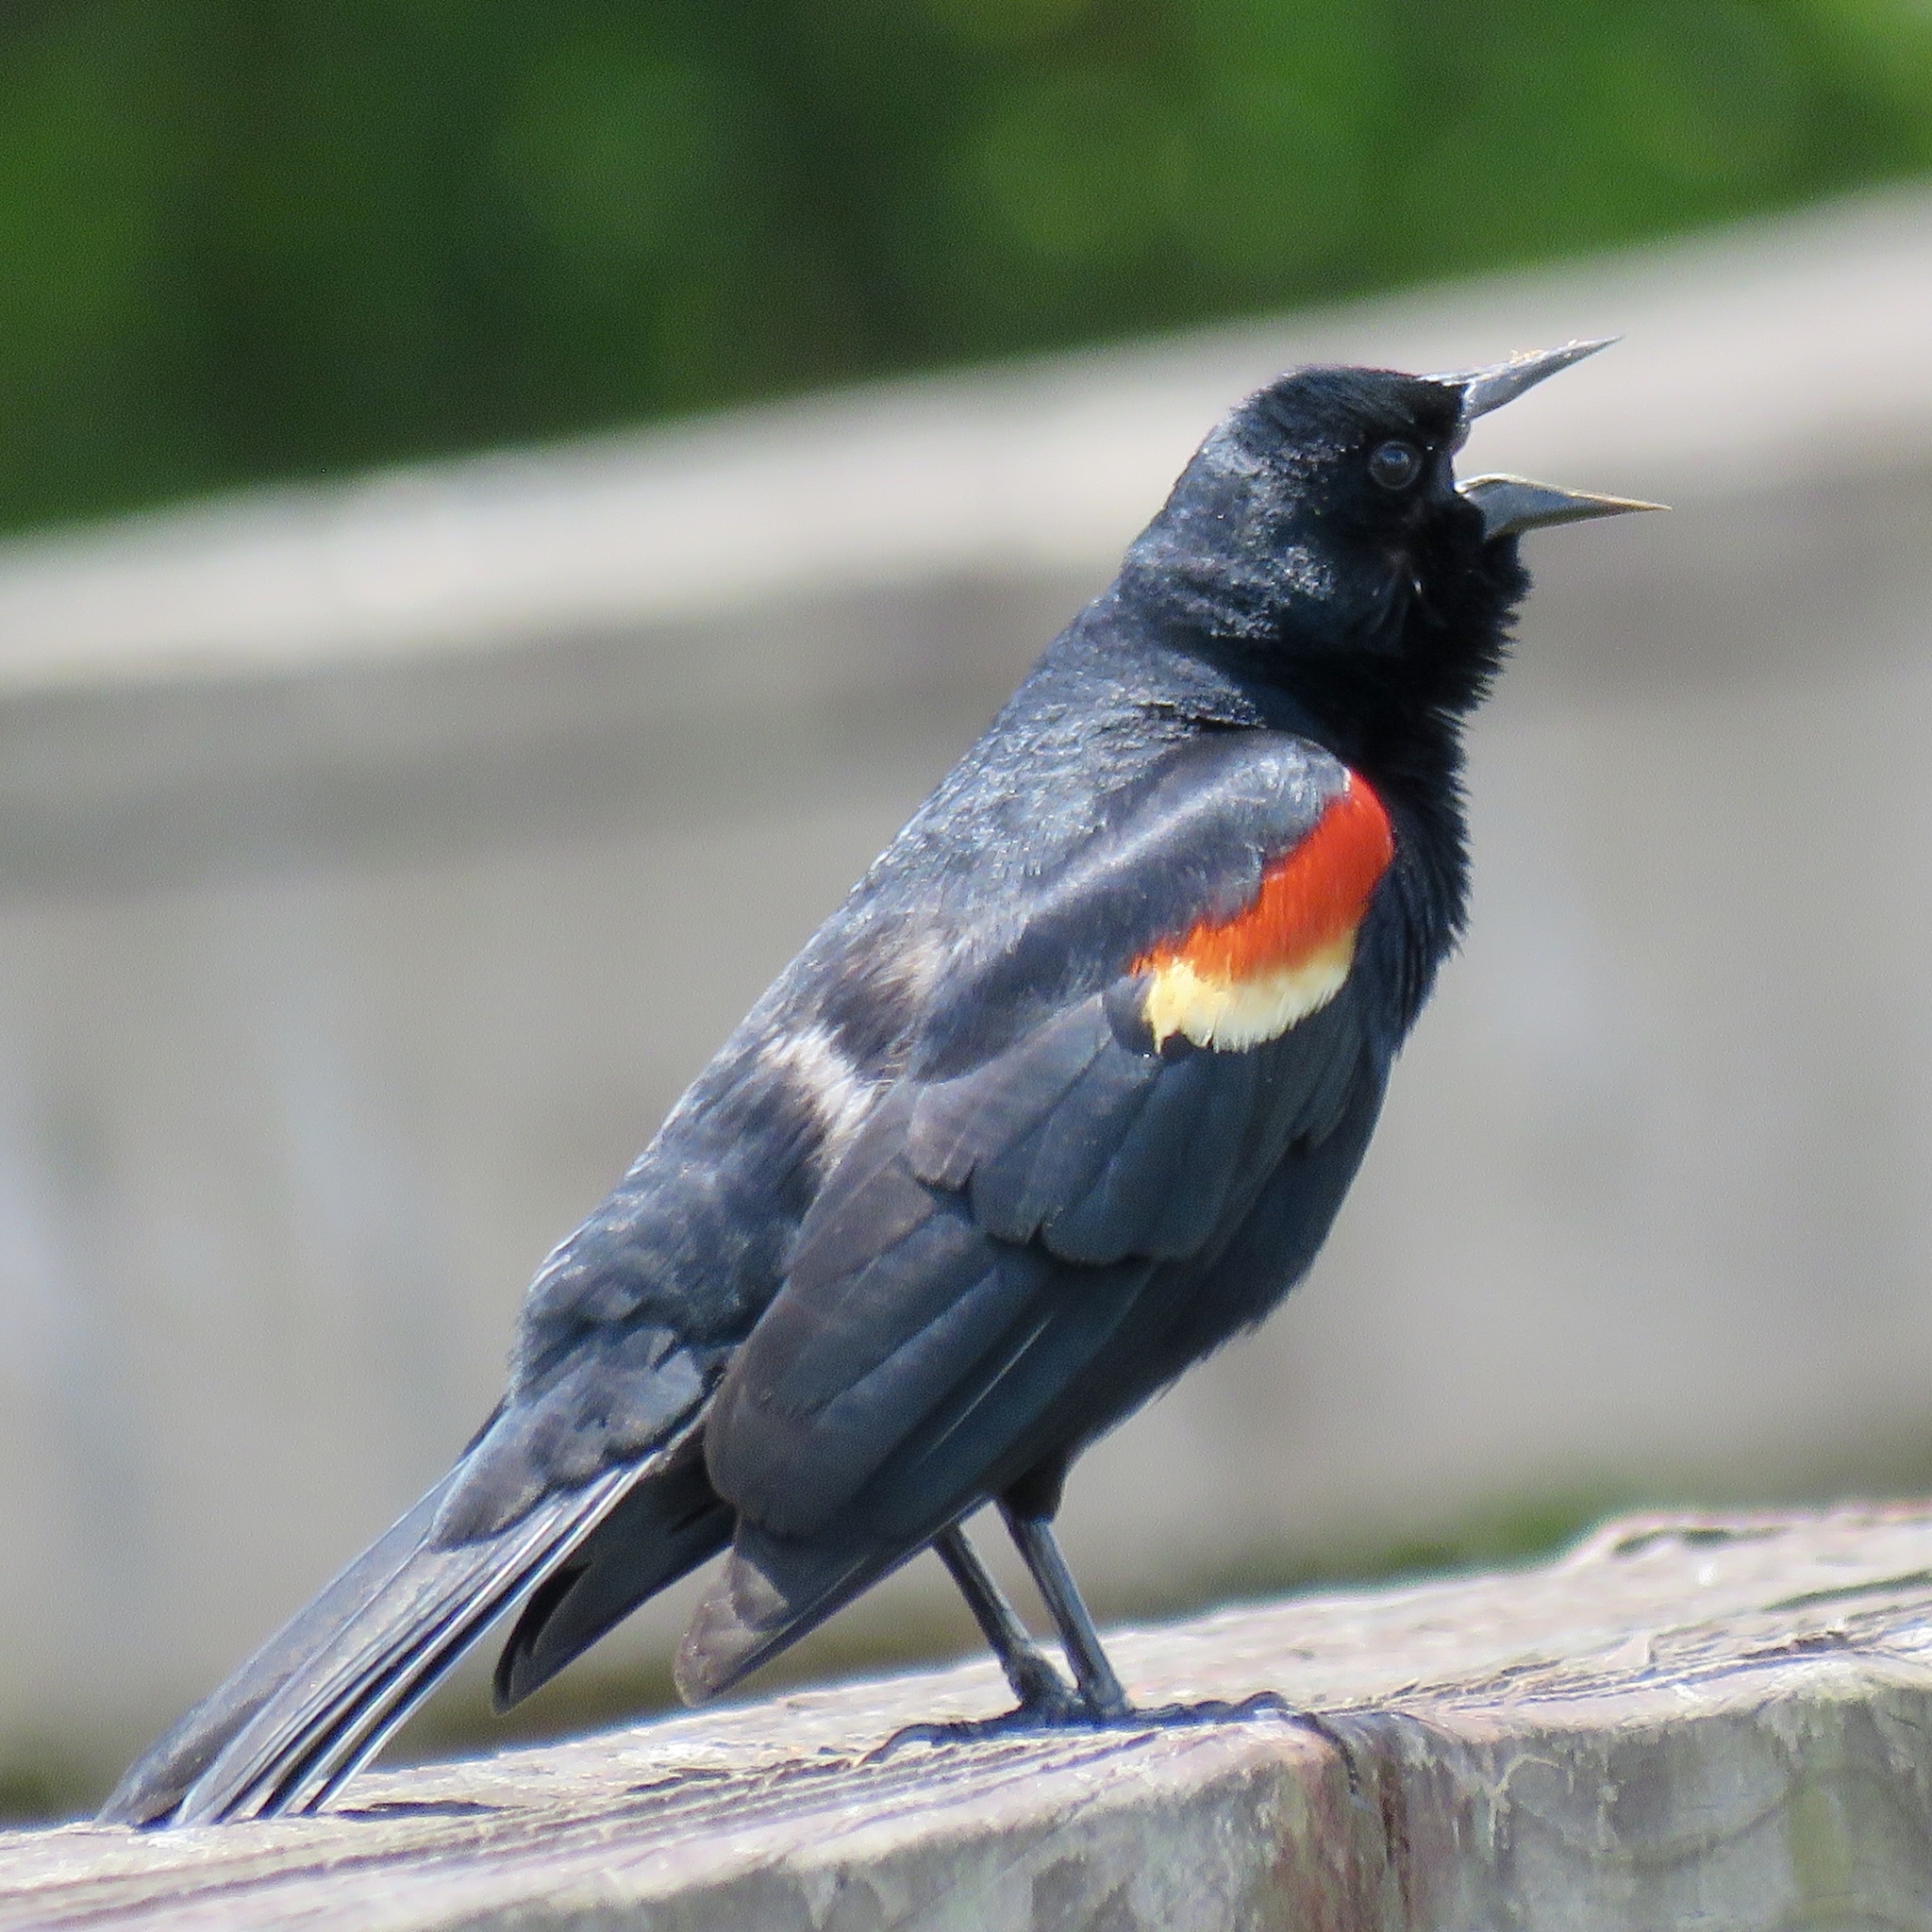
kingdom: Animalia
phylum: Chordata
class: Aves
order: Passeriformes
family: Icteridae
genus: Agelaius
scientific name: Agelaius phoeniceus
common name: Red-winged blackbird
